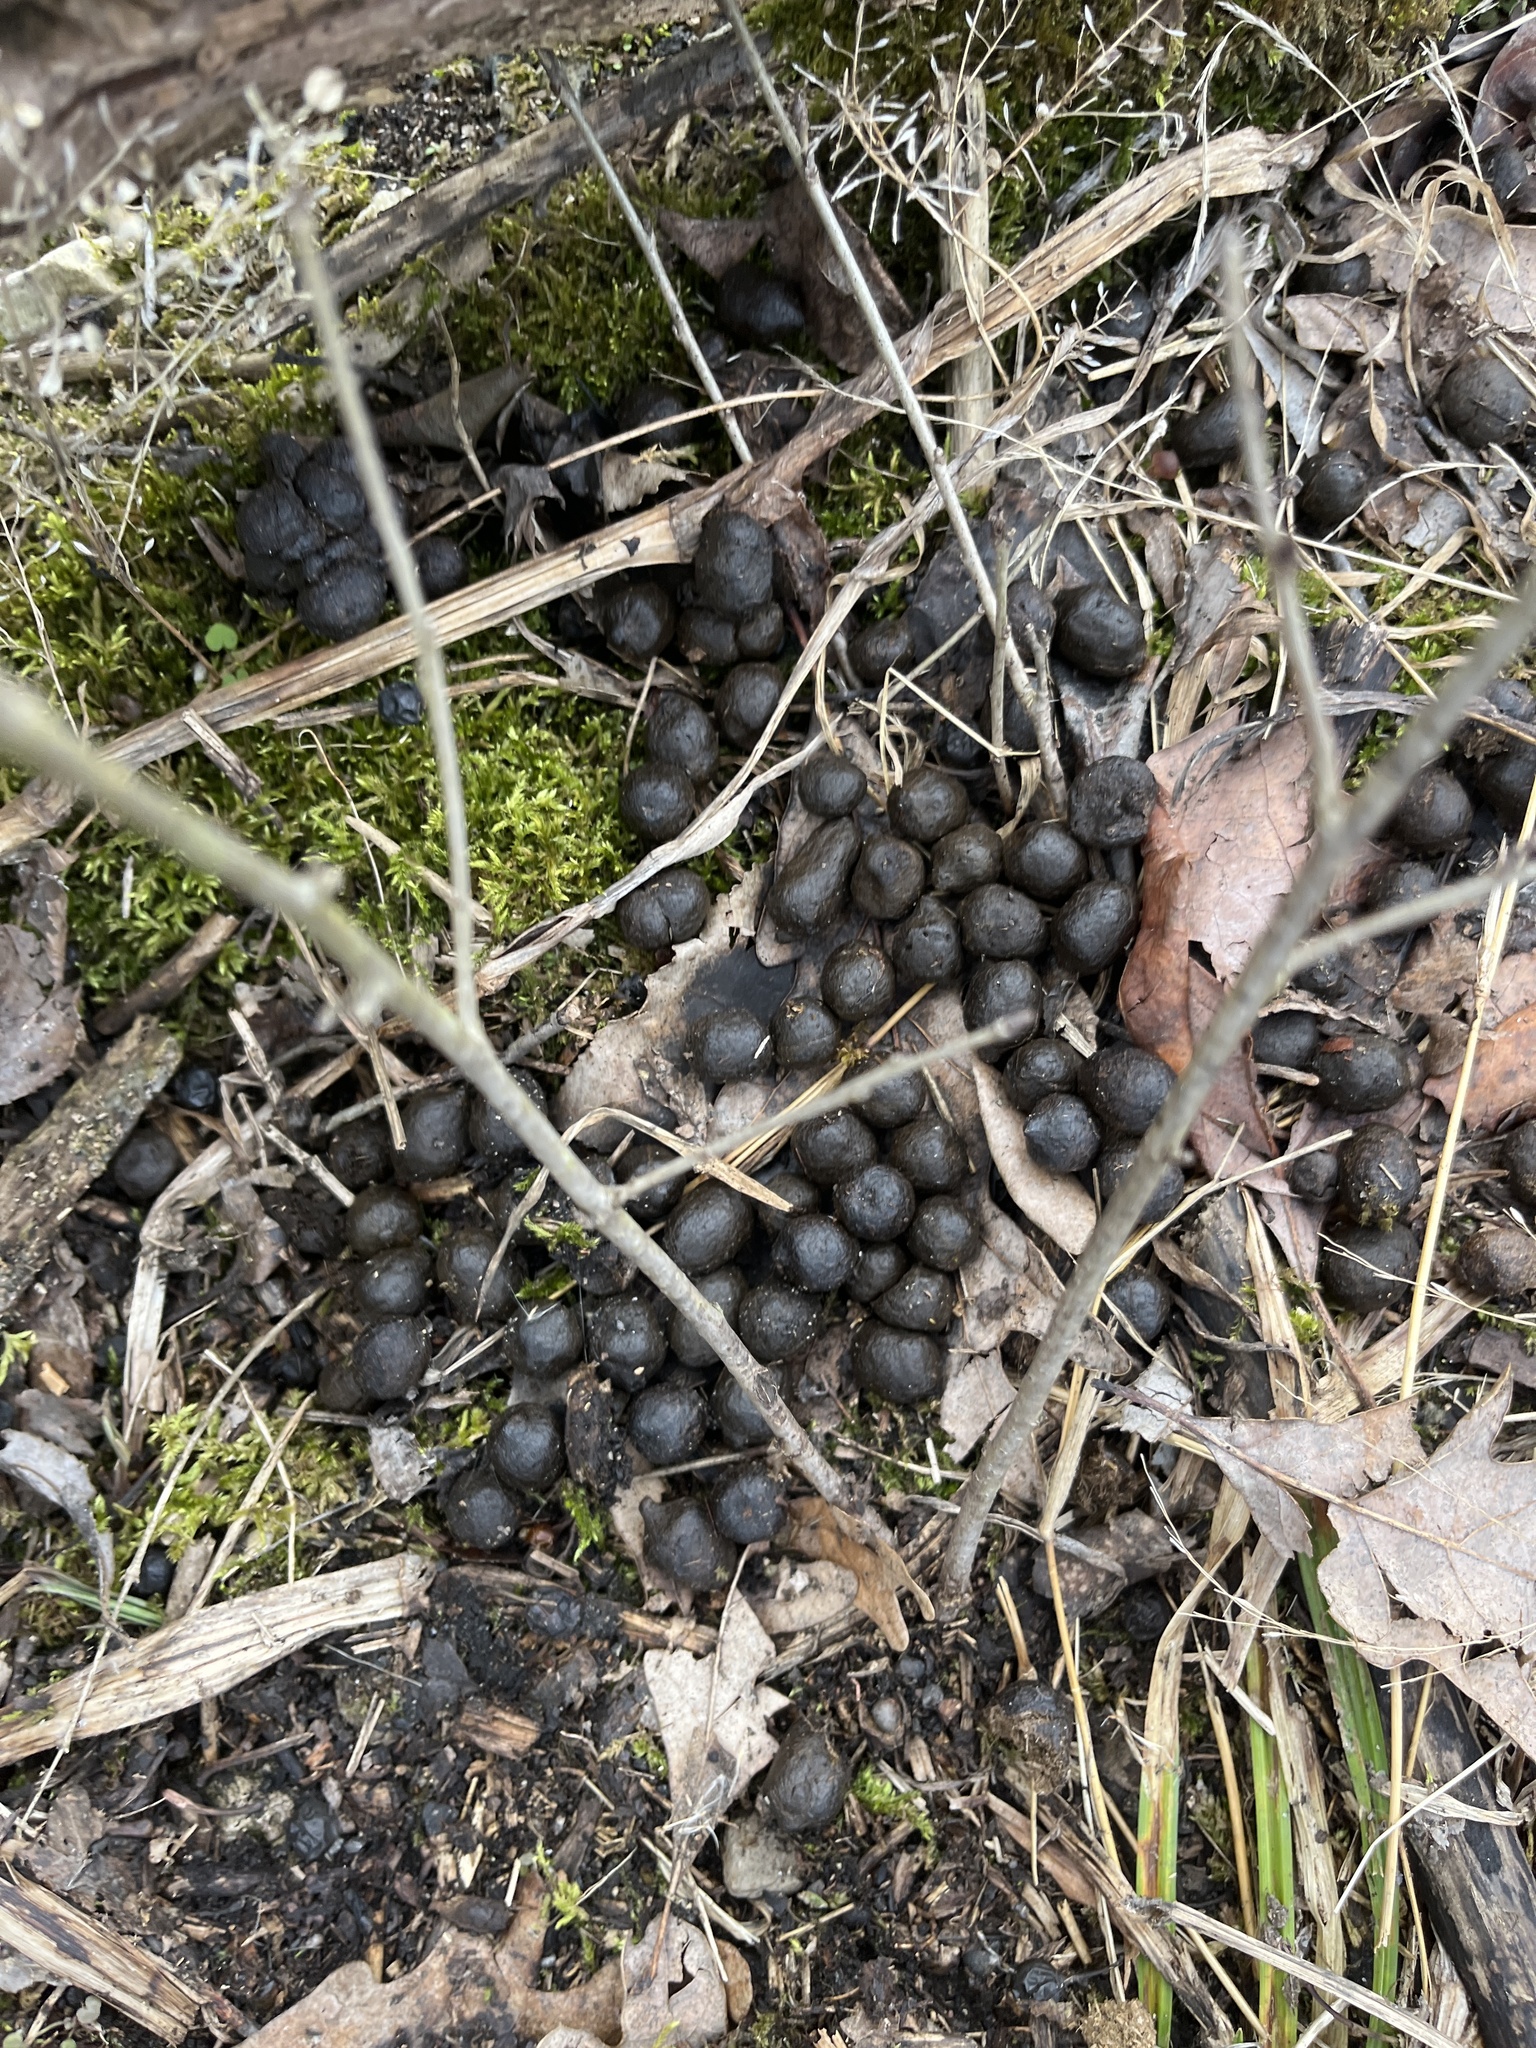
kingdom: Animalia
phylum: Chordata
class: Mammalia
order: Artiodactyla
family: Cervidae
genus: Odocoileus
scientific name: Odocoileus virginianus
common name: White-tailed deer
